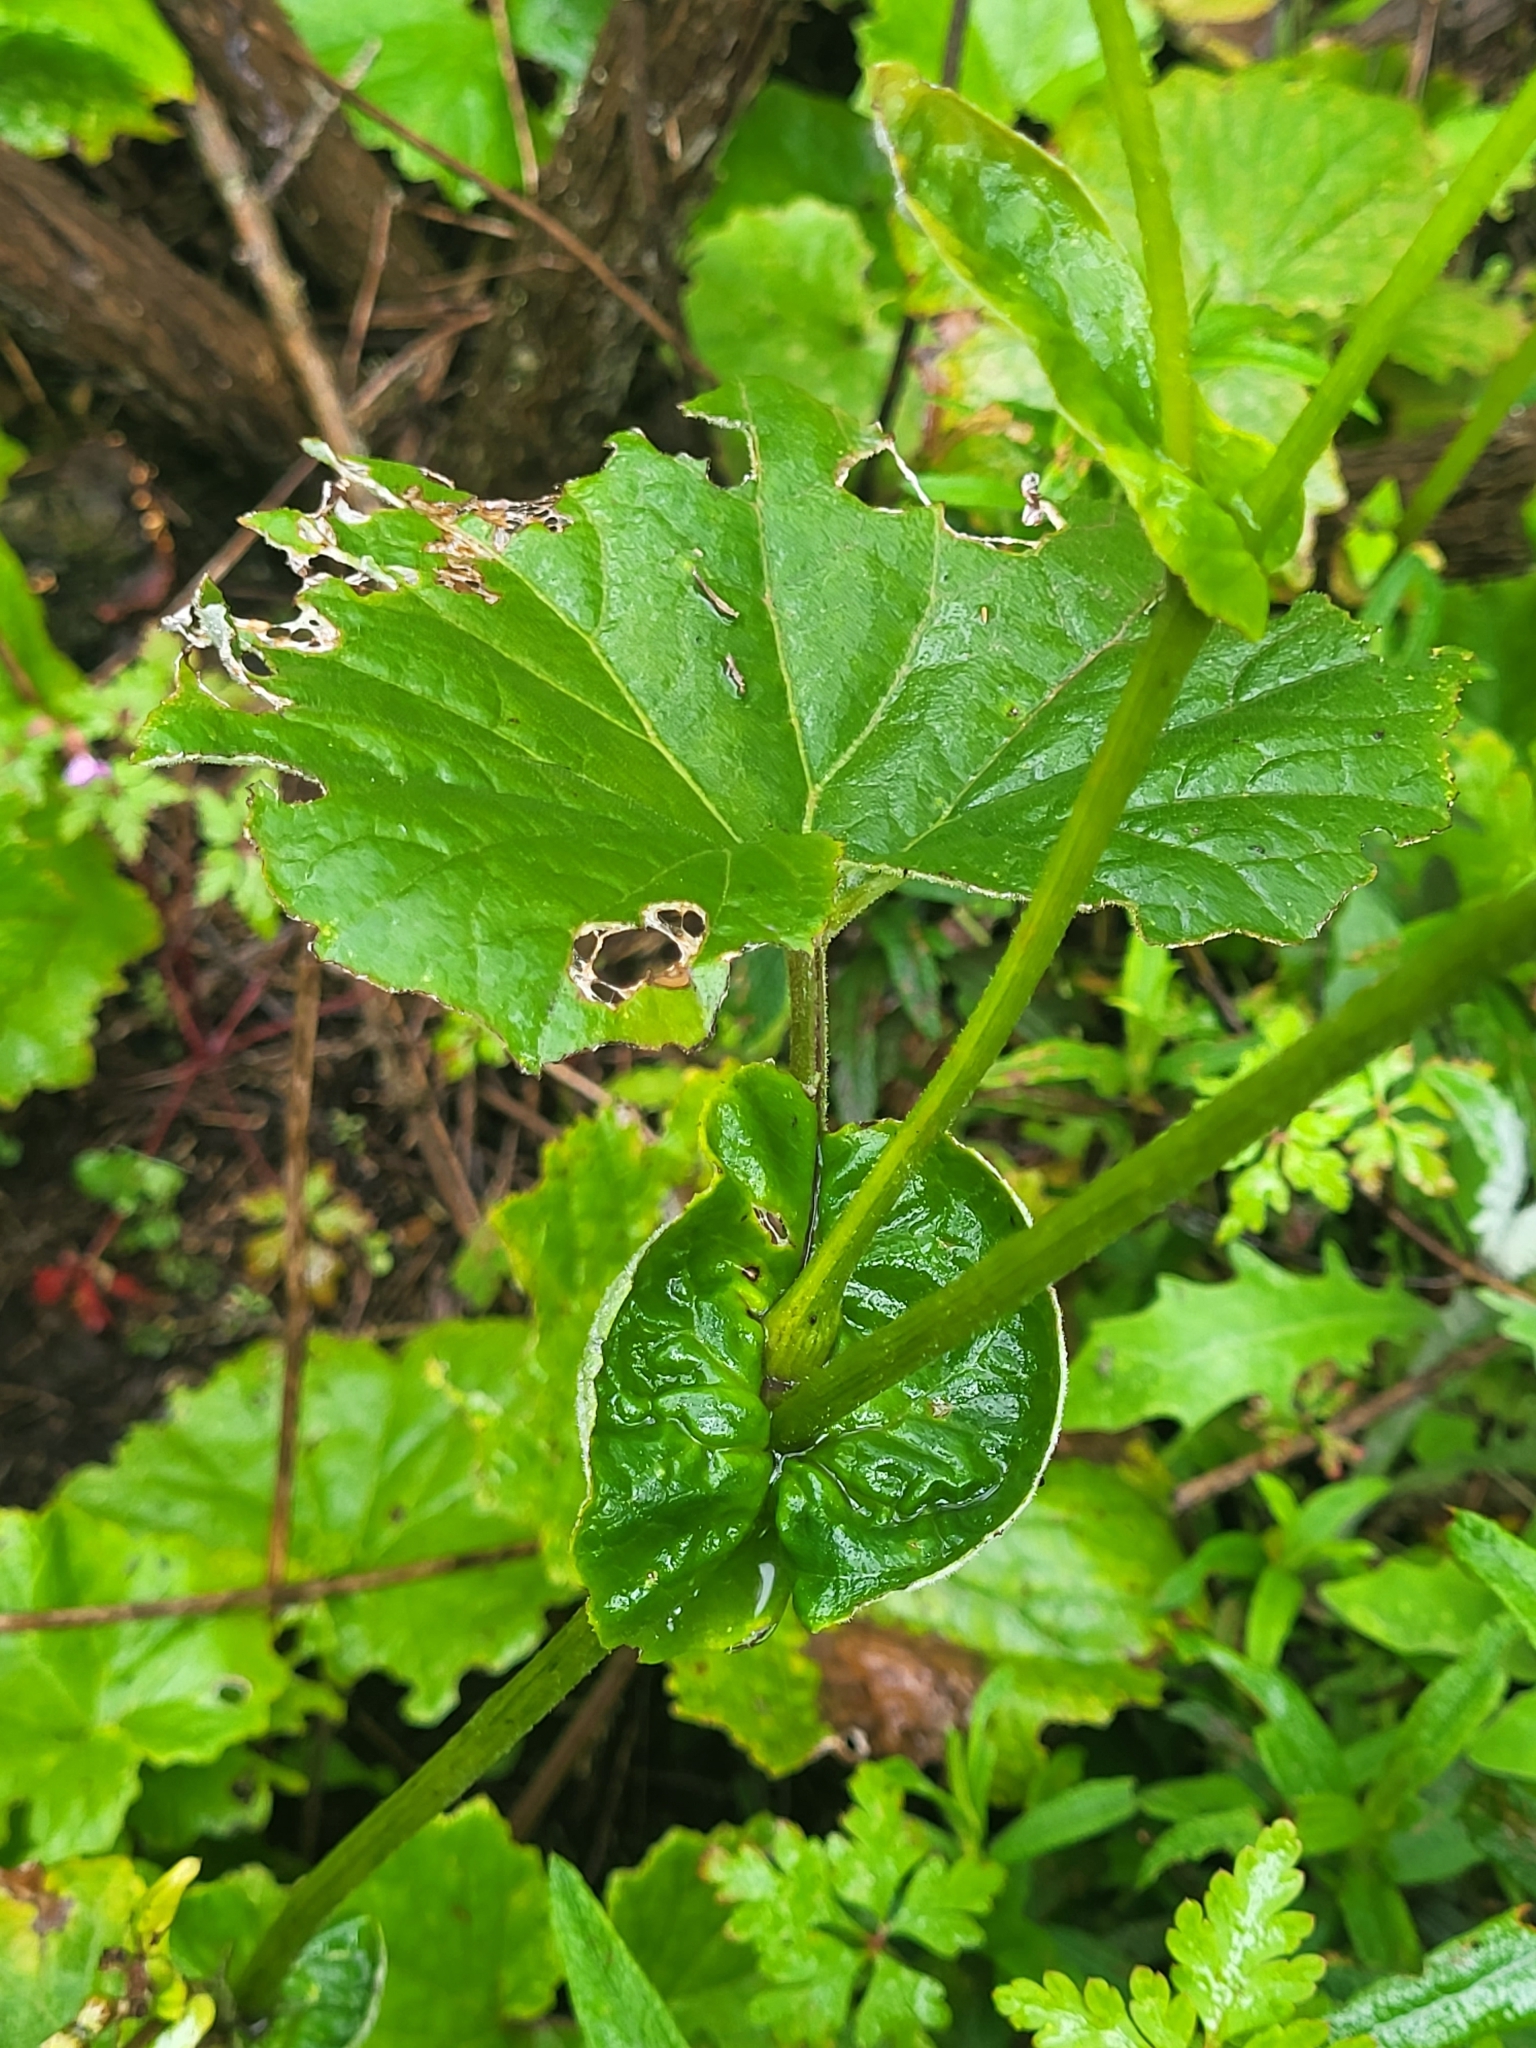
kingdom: Plantae
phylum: Tracheophyta
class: Magnoliopsida
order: Asterales
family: Asteraceae
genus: Pericallis
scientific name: Pericallis steetzii
